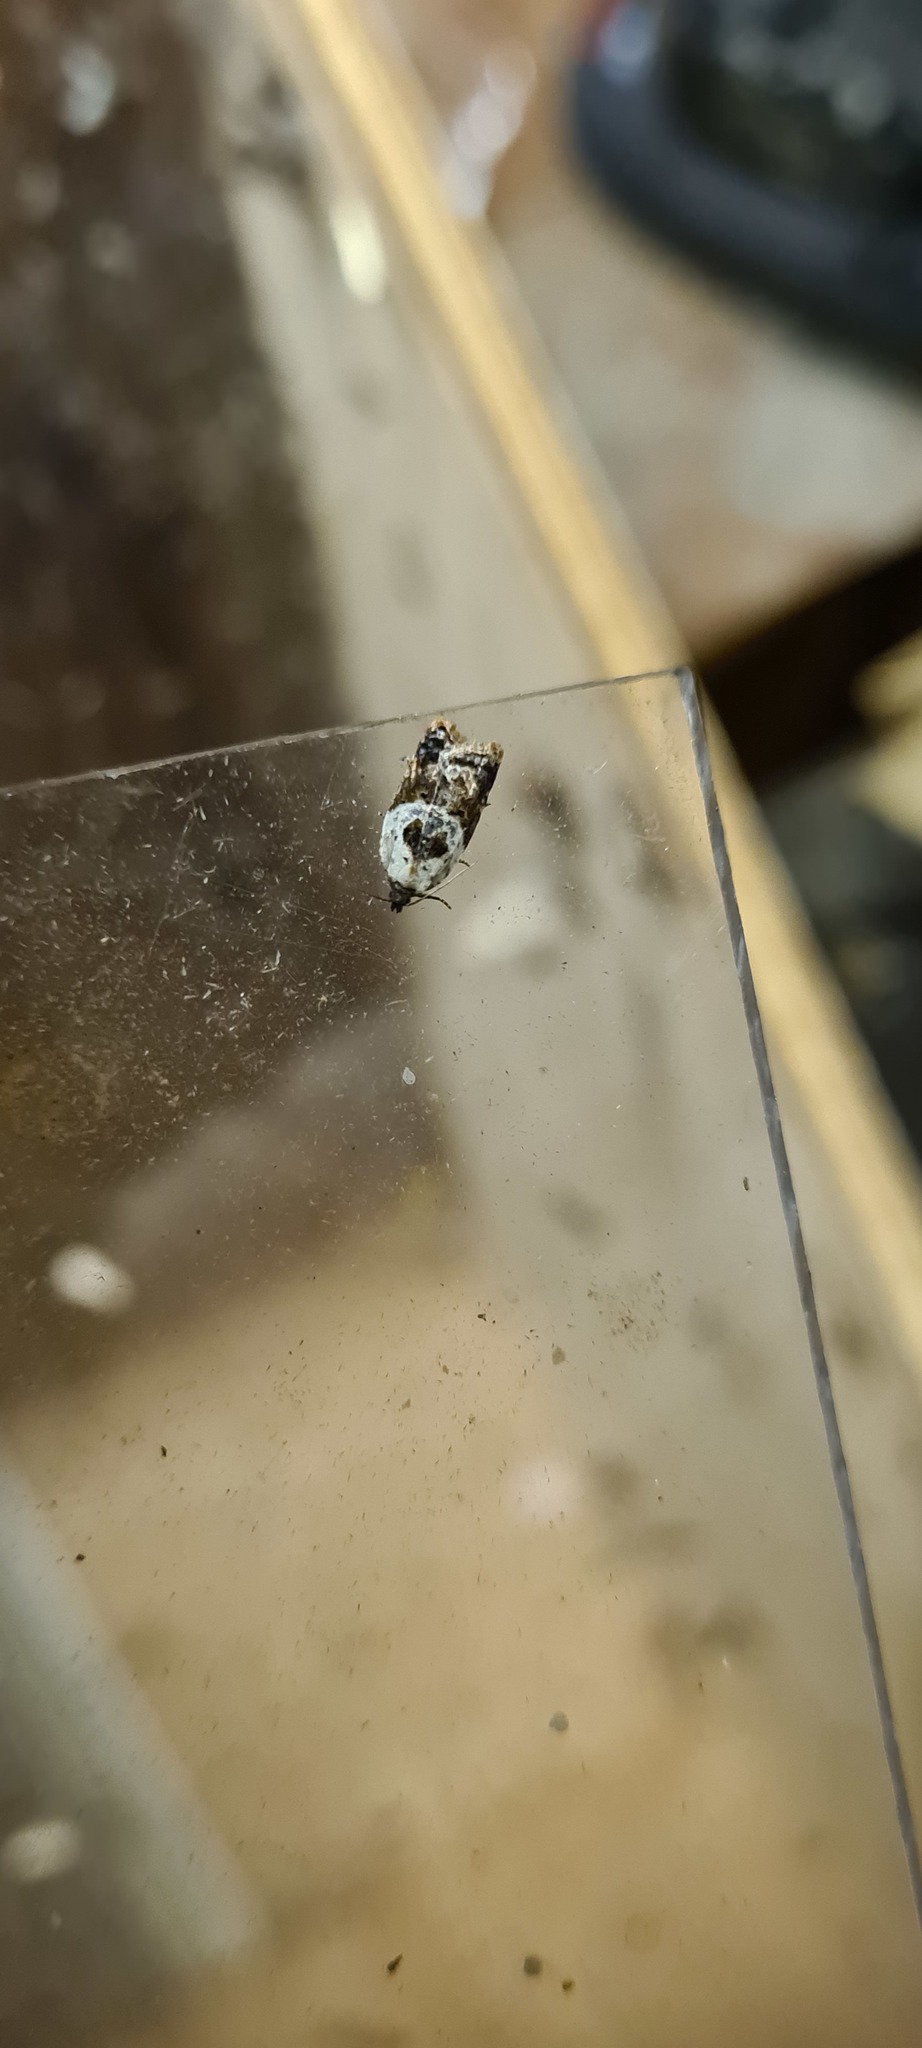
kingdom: Animalia
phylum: Arthropoda
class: Insecta
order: Lepidoptera
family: Tortricidae
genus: Acleris
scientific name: Acleris variegana
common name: Garden rose tortrix
